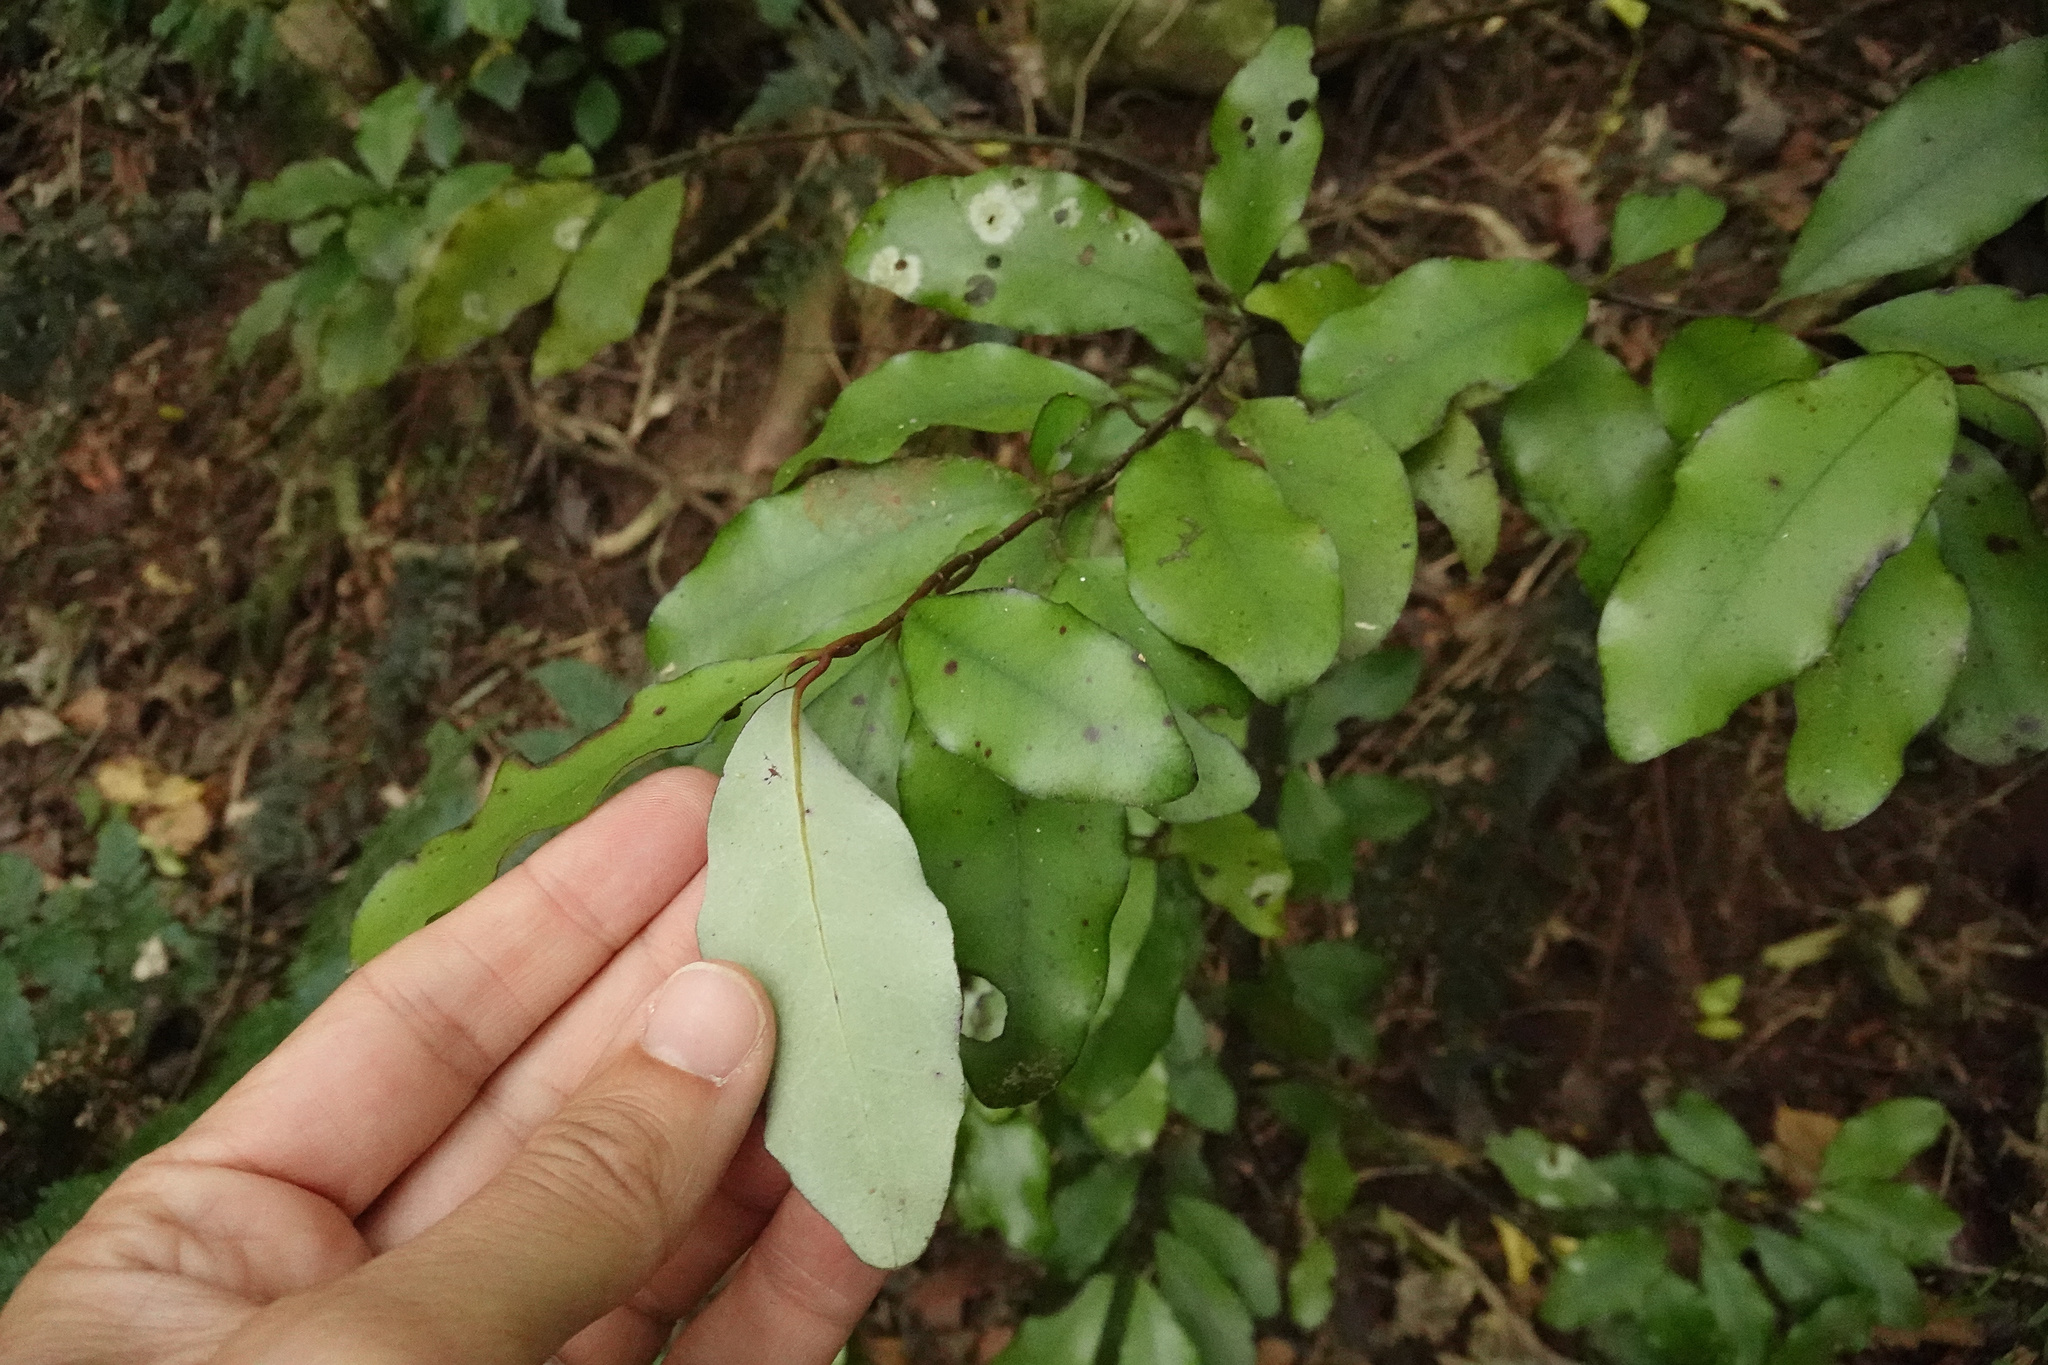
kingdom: Plantae
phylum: Tracheophyta
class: Magnoliopsida
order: Canellales
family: Winteraceae
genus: Pseudowintera
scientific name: Pseudowintera colorata
